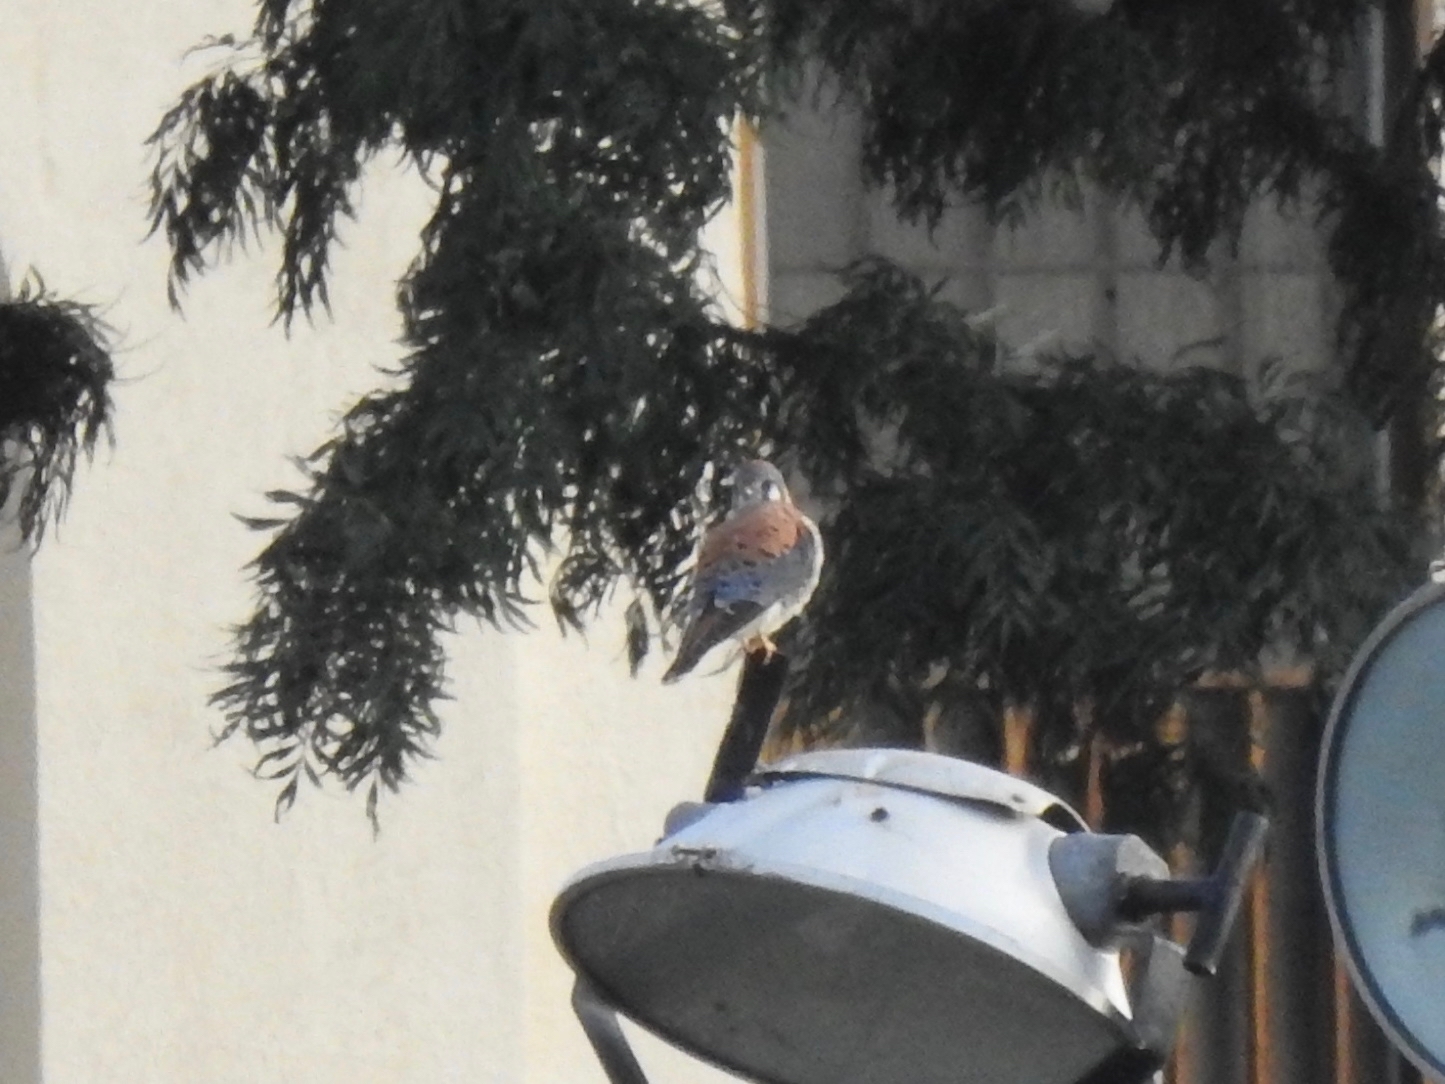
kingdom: Animalia
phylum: Chordata
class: Aves
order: Falconiformes
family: Falconidae
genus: Falco
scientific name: Falco sparverius
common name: American kestrel
